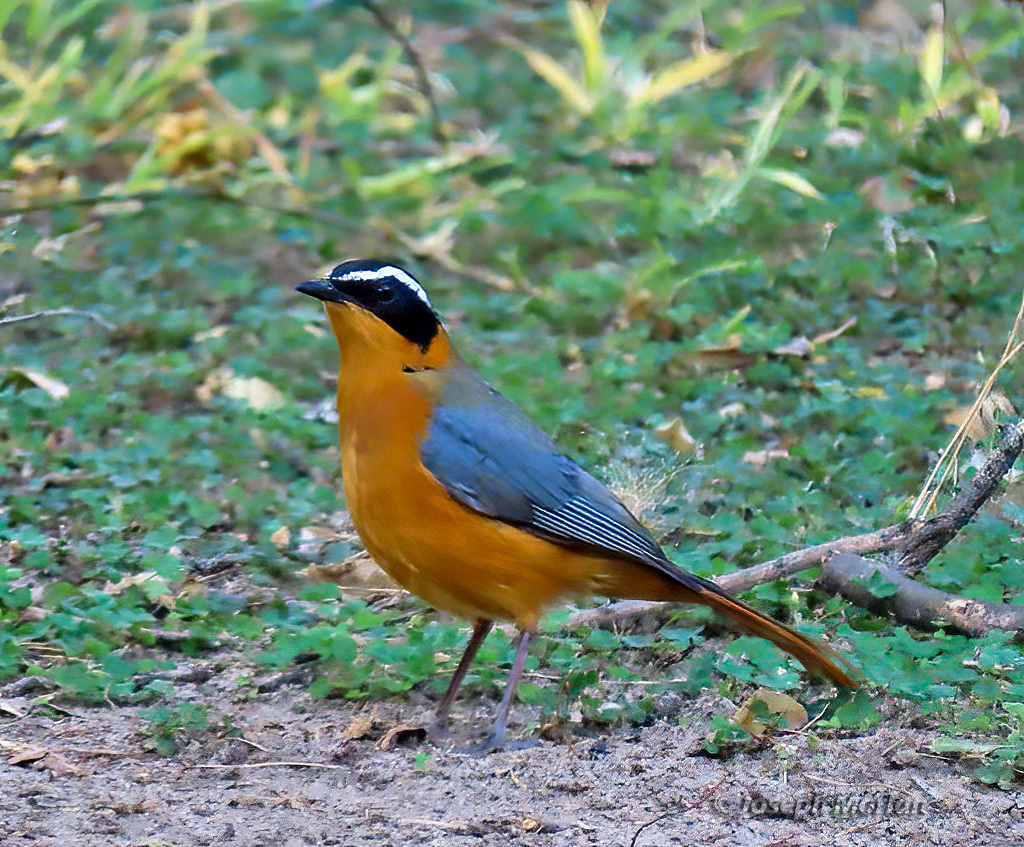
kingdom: Animalia
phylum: Chordata
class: Aves
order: Passeriformes
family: Muscicapidae
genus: Cossypha
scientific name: Cossypha heuglini
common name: White-browed robin-chat
